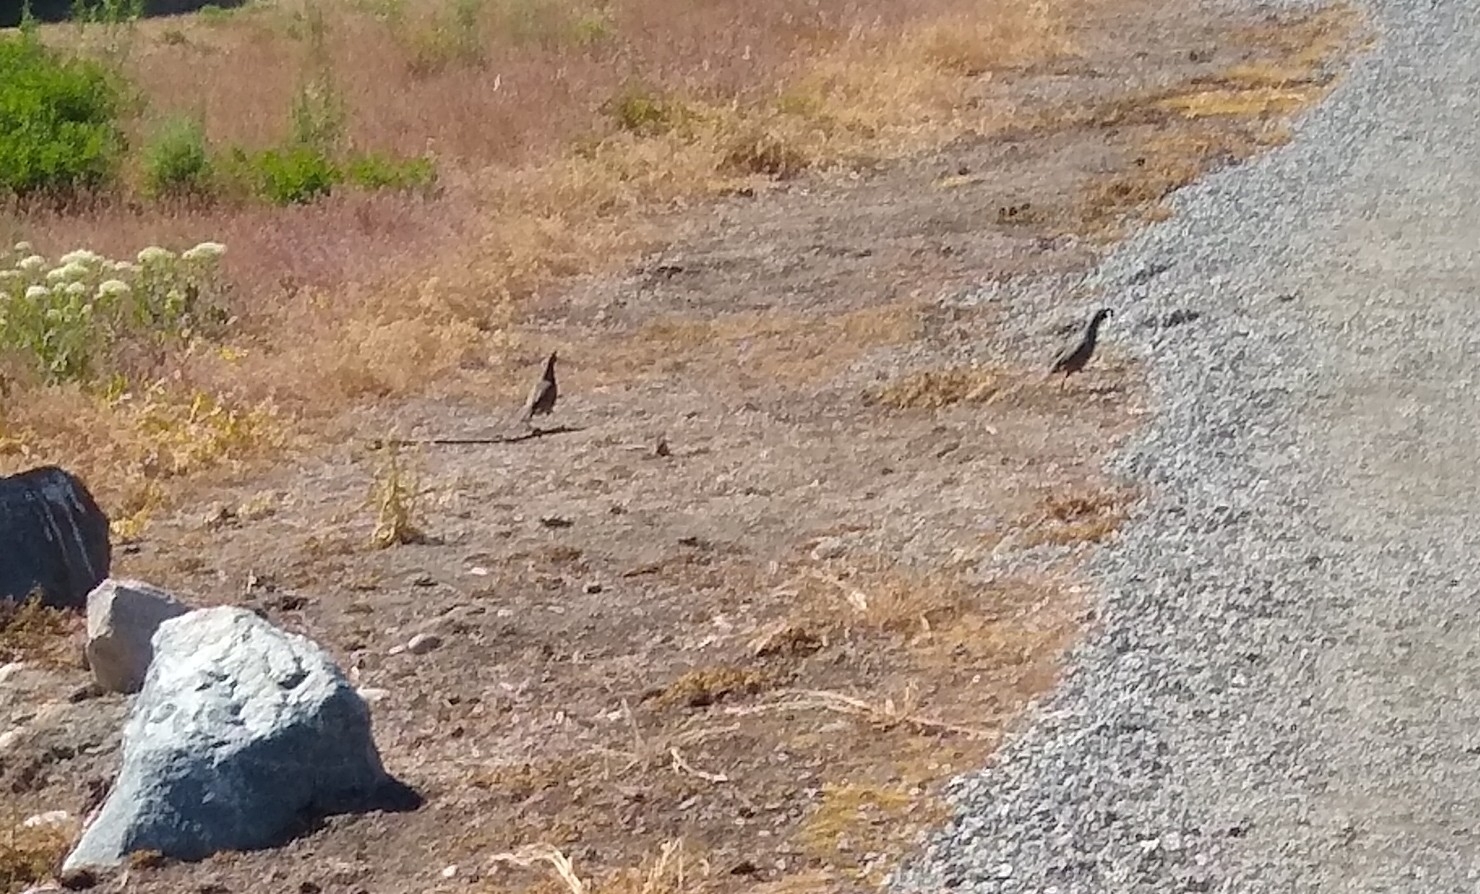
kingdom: Animalia
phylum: Chordata
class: Aves
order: Galliformes
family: Odontophoridae
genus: Callipepla
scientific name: Callipepla californica
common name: California quail
